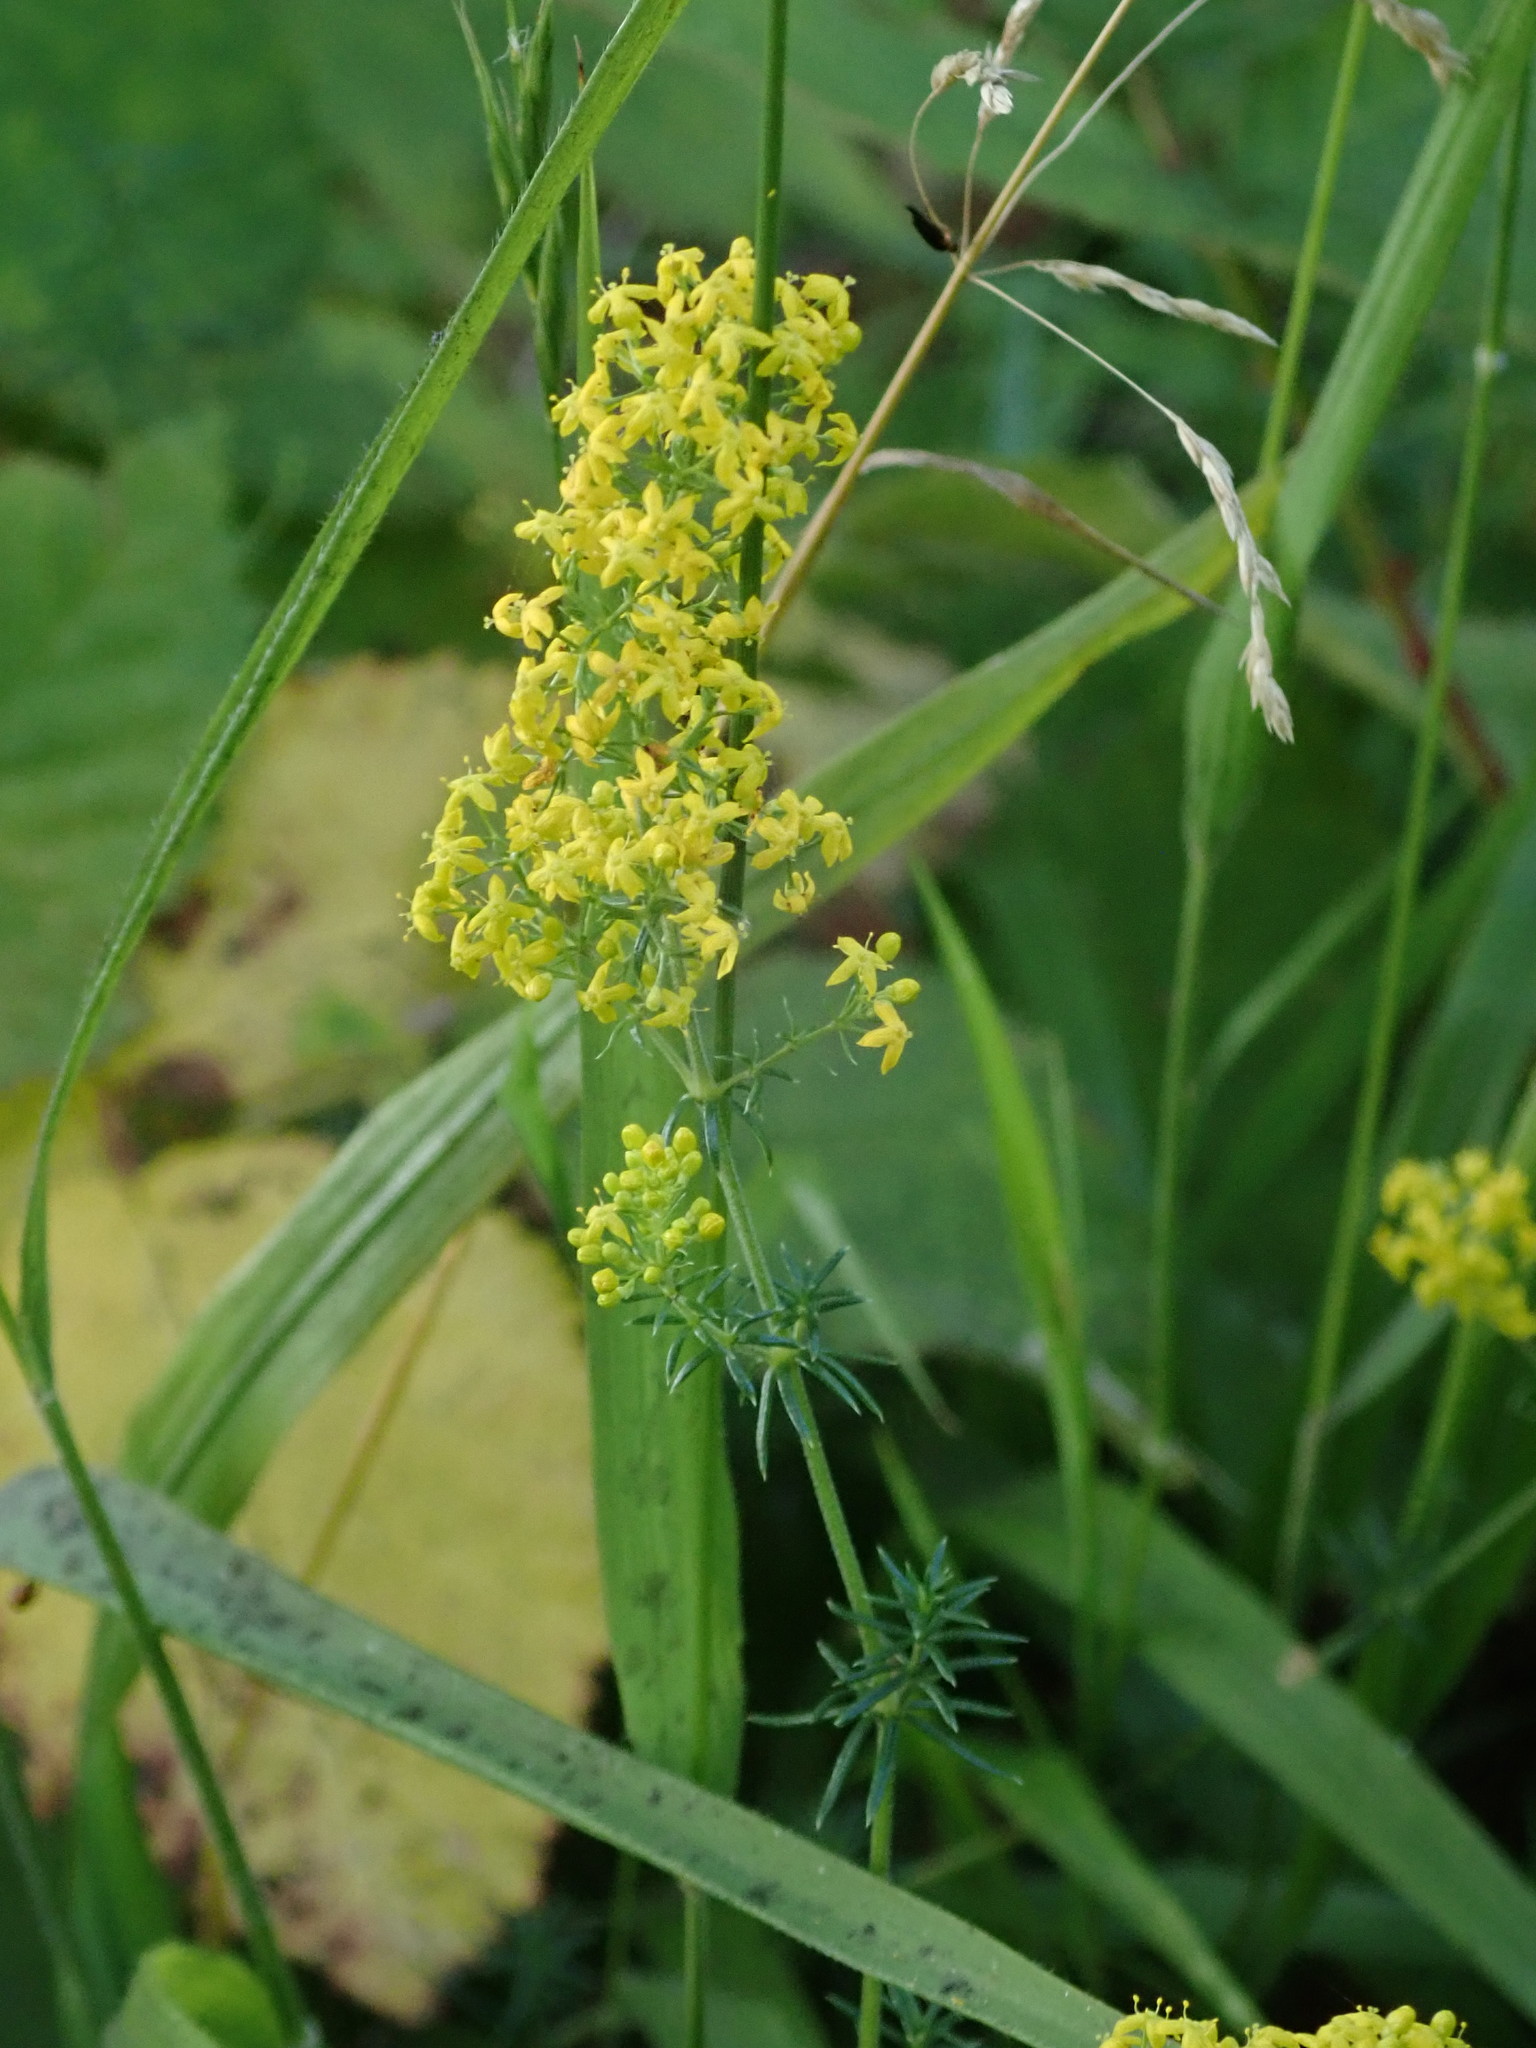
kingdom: Plantae
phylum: Tracheophyta
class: Magnoliopsida
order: Gentianales
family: Rubiaceae
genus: Galium
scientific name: Galium verum
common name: Lady's bedstraw
